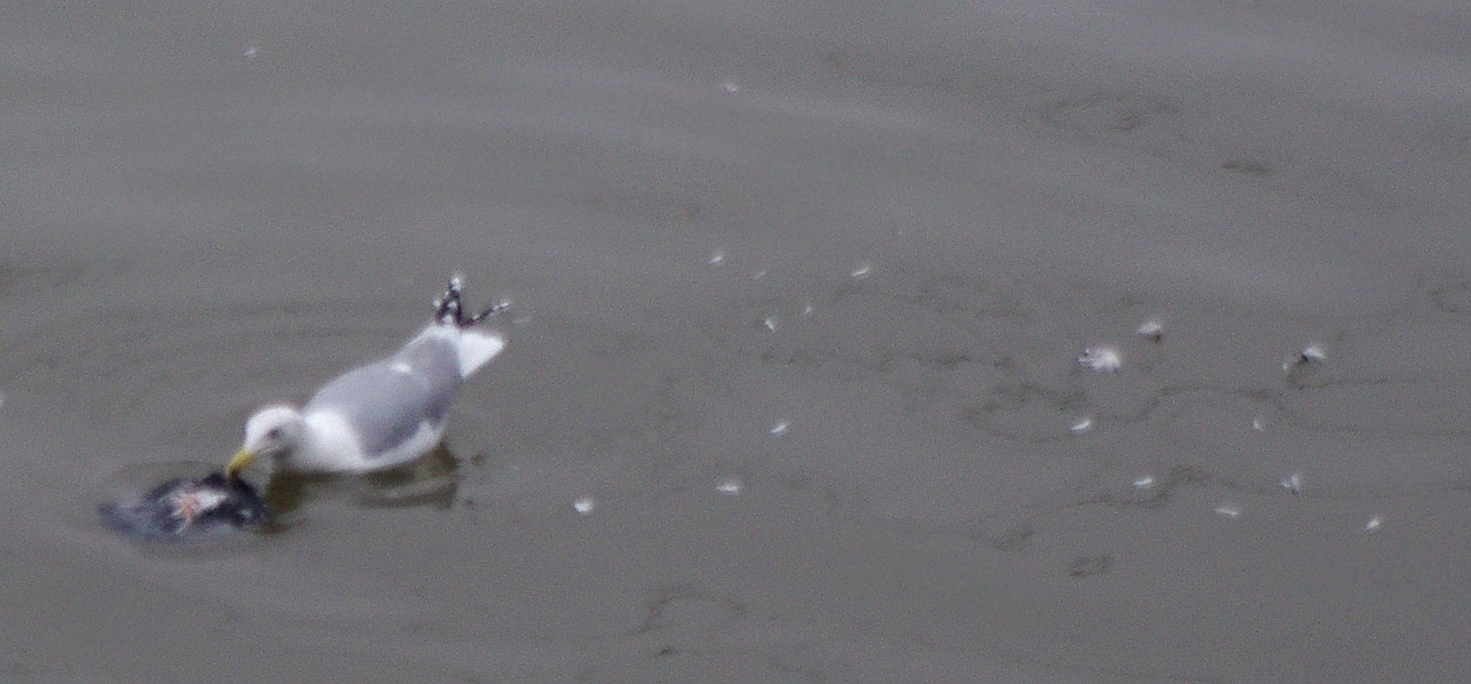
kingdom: Animalia
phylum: Chordata
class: Aves
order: Charadriiformes
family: Laridae
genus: Larus
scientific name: Larus argentatus
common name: Herring gull
